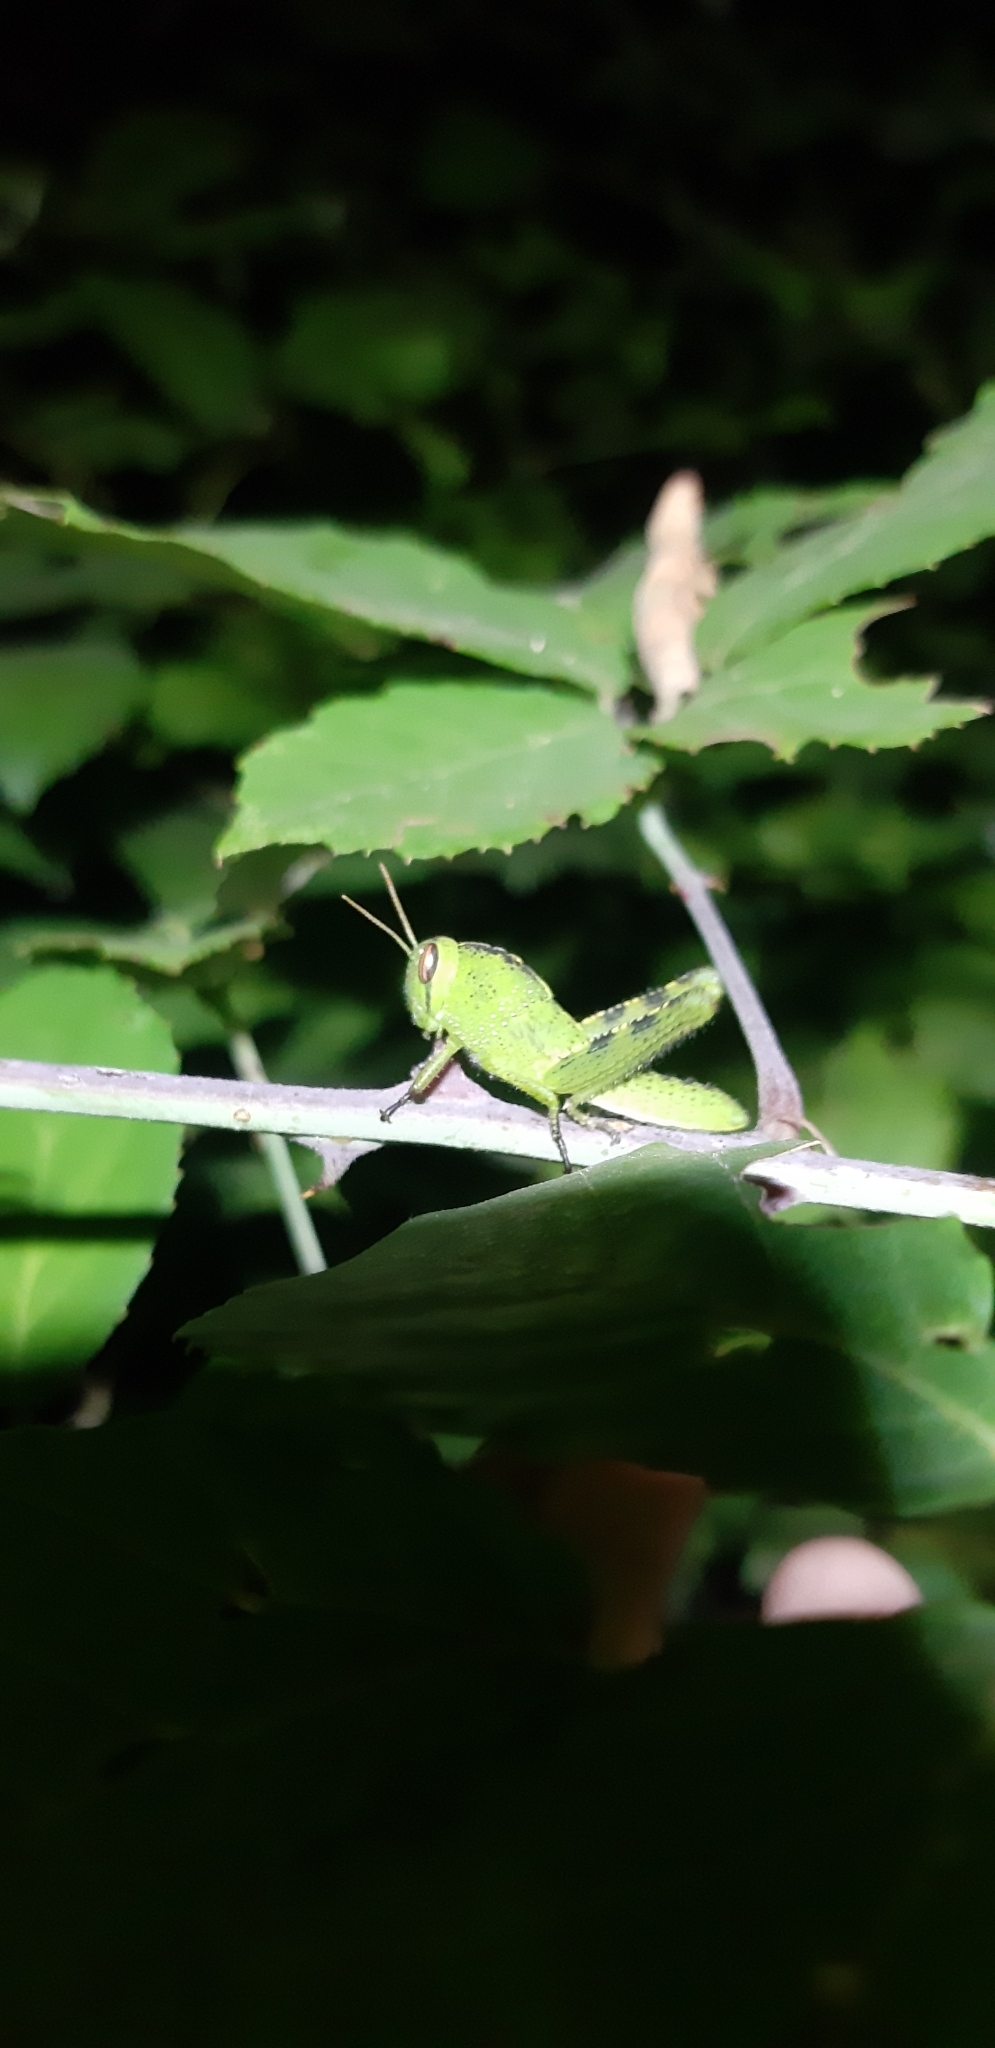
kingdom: Animalia
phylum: Arthropoda
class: Insecta
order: Orthoptera
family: Acrididae
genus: Anacridium
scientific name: Anacridium aegyptium
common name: Egyptian grasshopper
